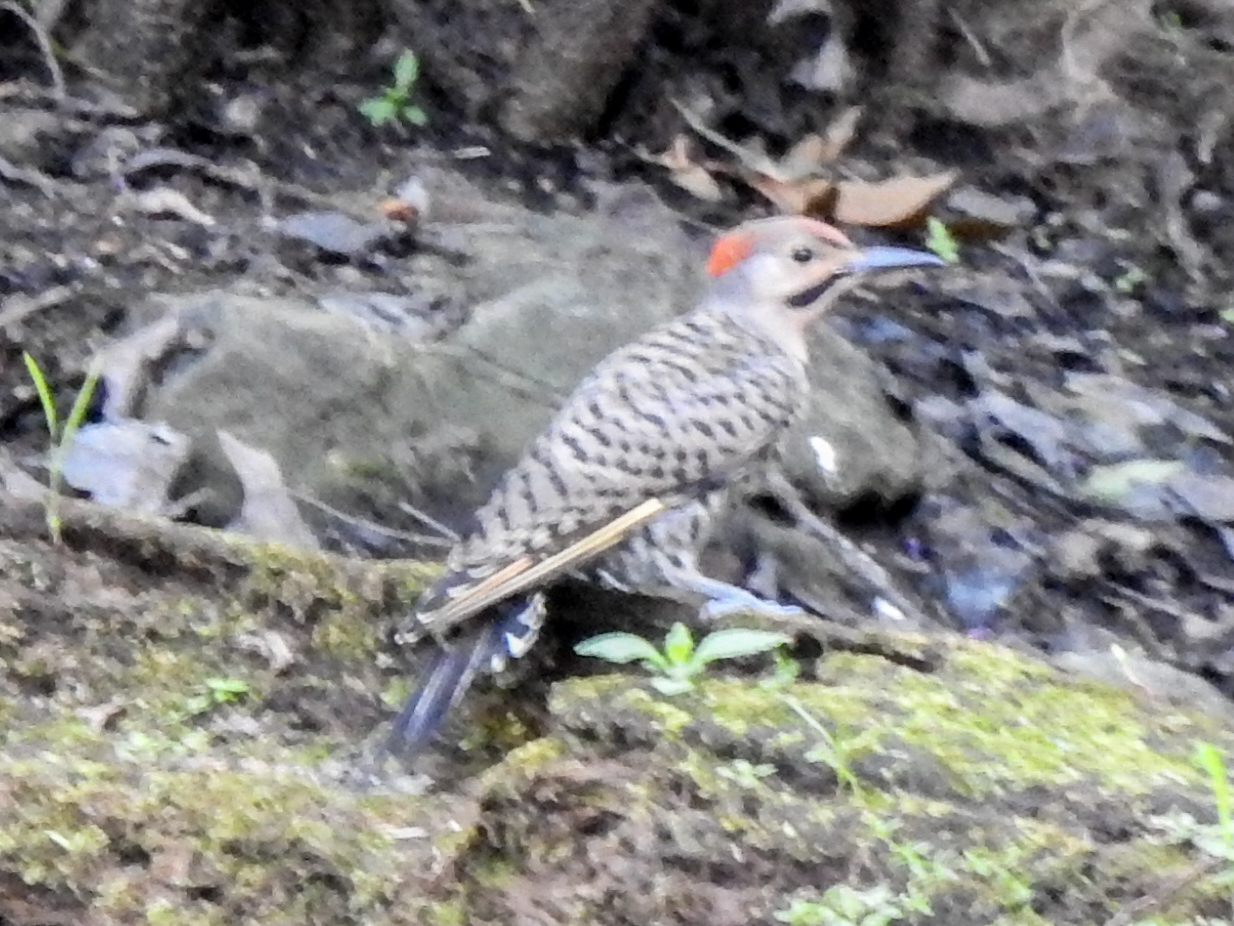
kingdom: Animalia
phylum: Chordata
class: Aves
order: Piciformes
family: Picidae
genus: Colaptes
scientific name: Colaptes auratus
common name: Northern flicker
